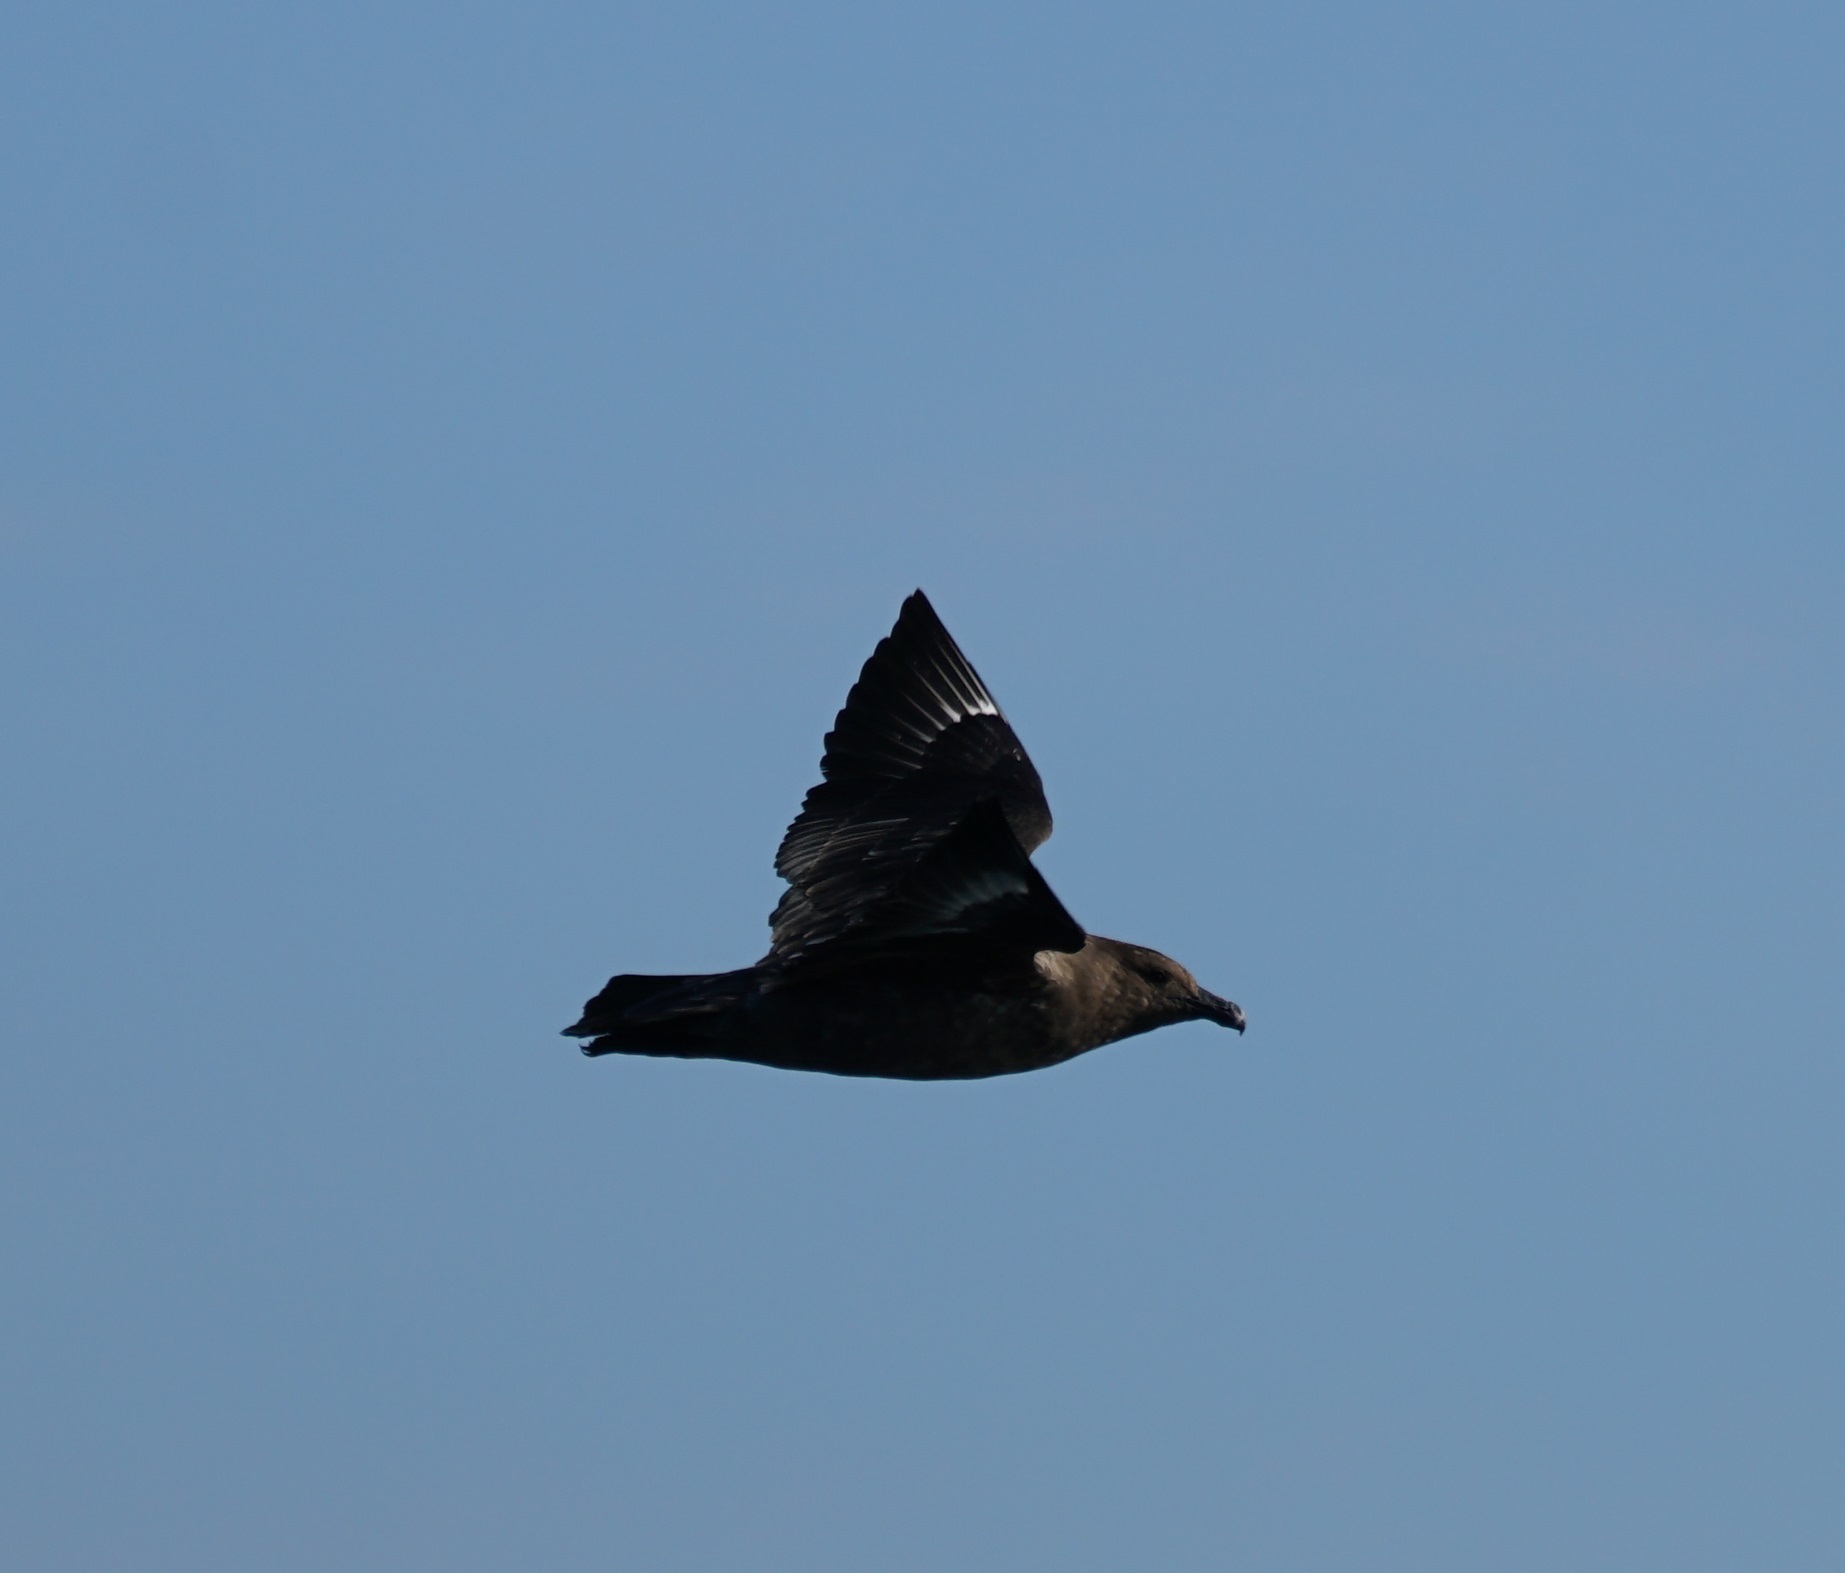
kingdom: Animalia
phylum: Chordata
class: Aves
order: Charadriiformes
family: Stercorariidae
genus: Stercorarius
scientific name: Stercorarius antarcticus
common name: Brown skua
